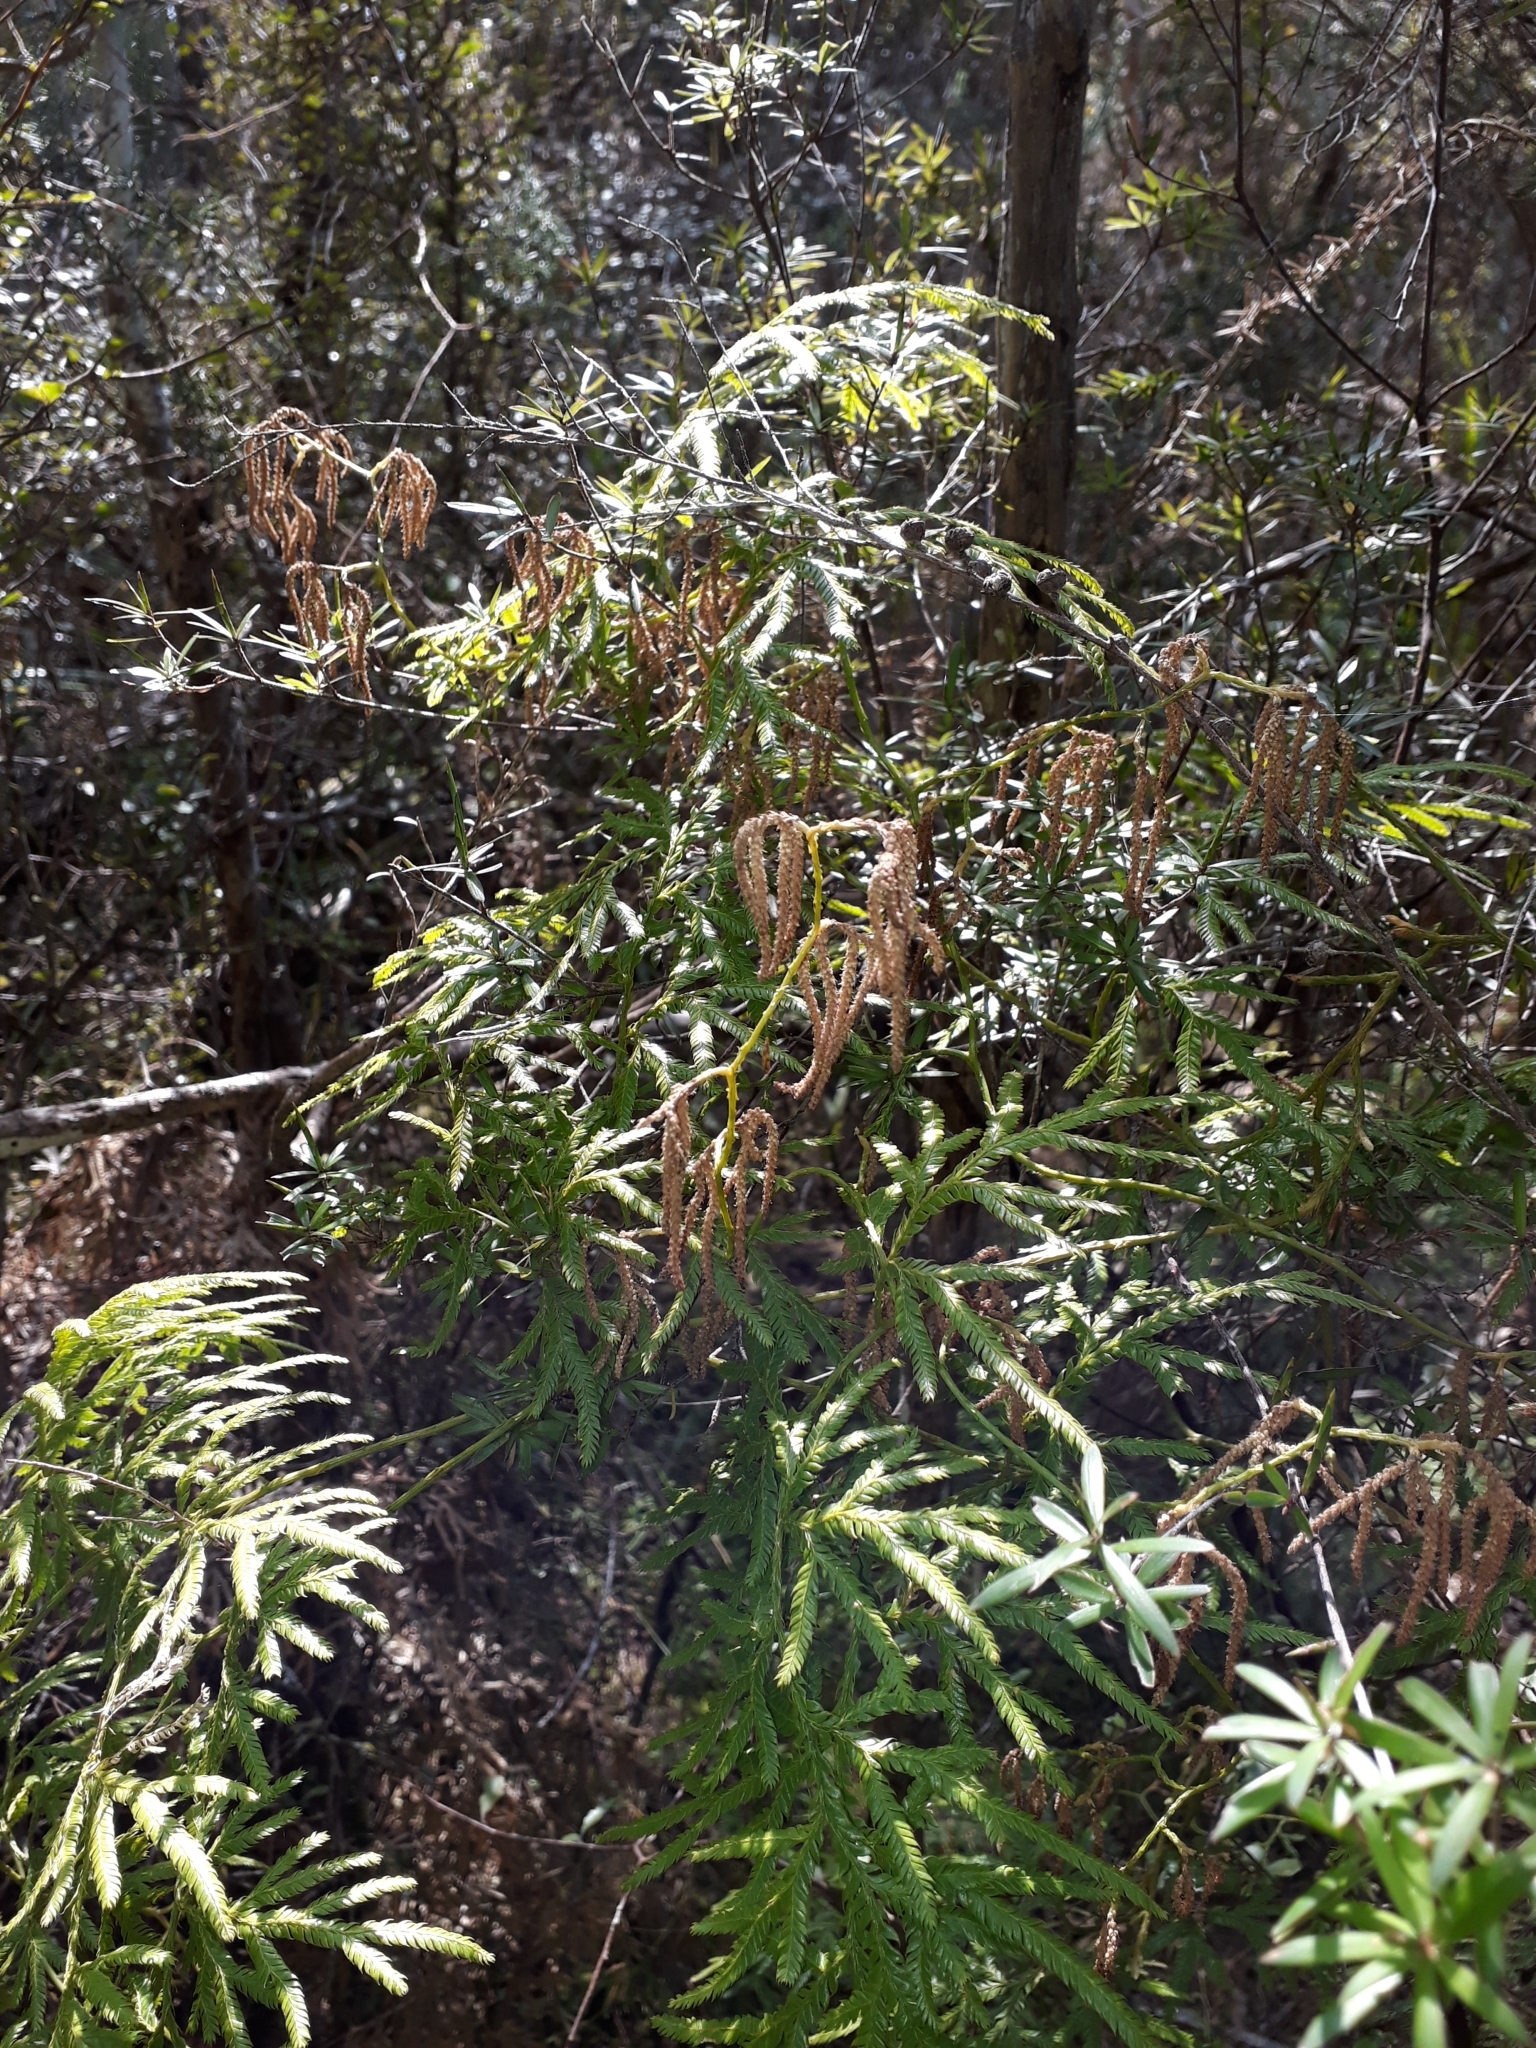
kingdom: Plantae
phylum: Tracheophyta
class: Lycopodiopsida
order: Lycopodiales
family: Lycopodiaceae
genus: Lycopodium
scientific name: Lycopodium volubile
